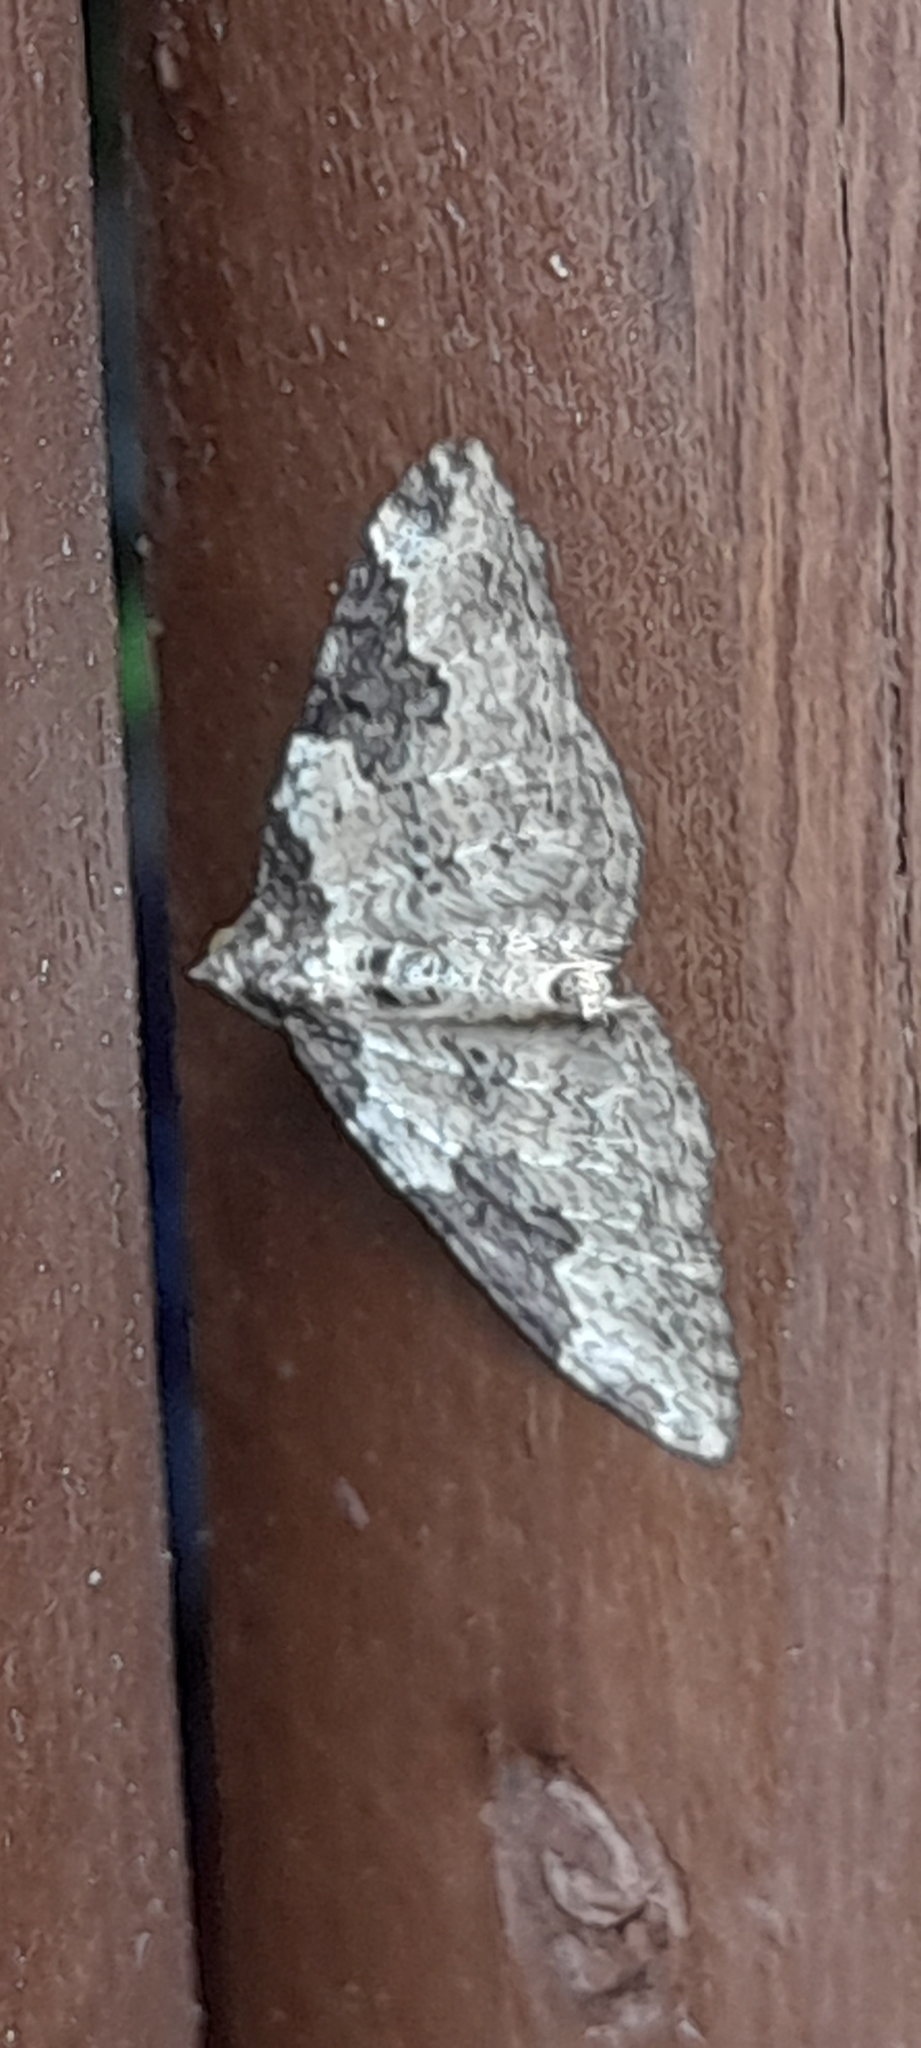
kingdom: Animalia
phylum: Arthropoda
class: Insecta
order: Lepidoptera
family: Geometridae
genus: Xanthorhoe
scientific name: Xanthorhoe fluctuata
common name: Garden carpet
